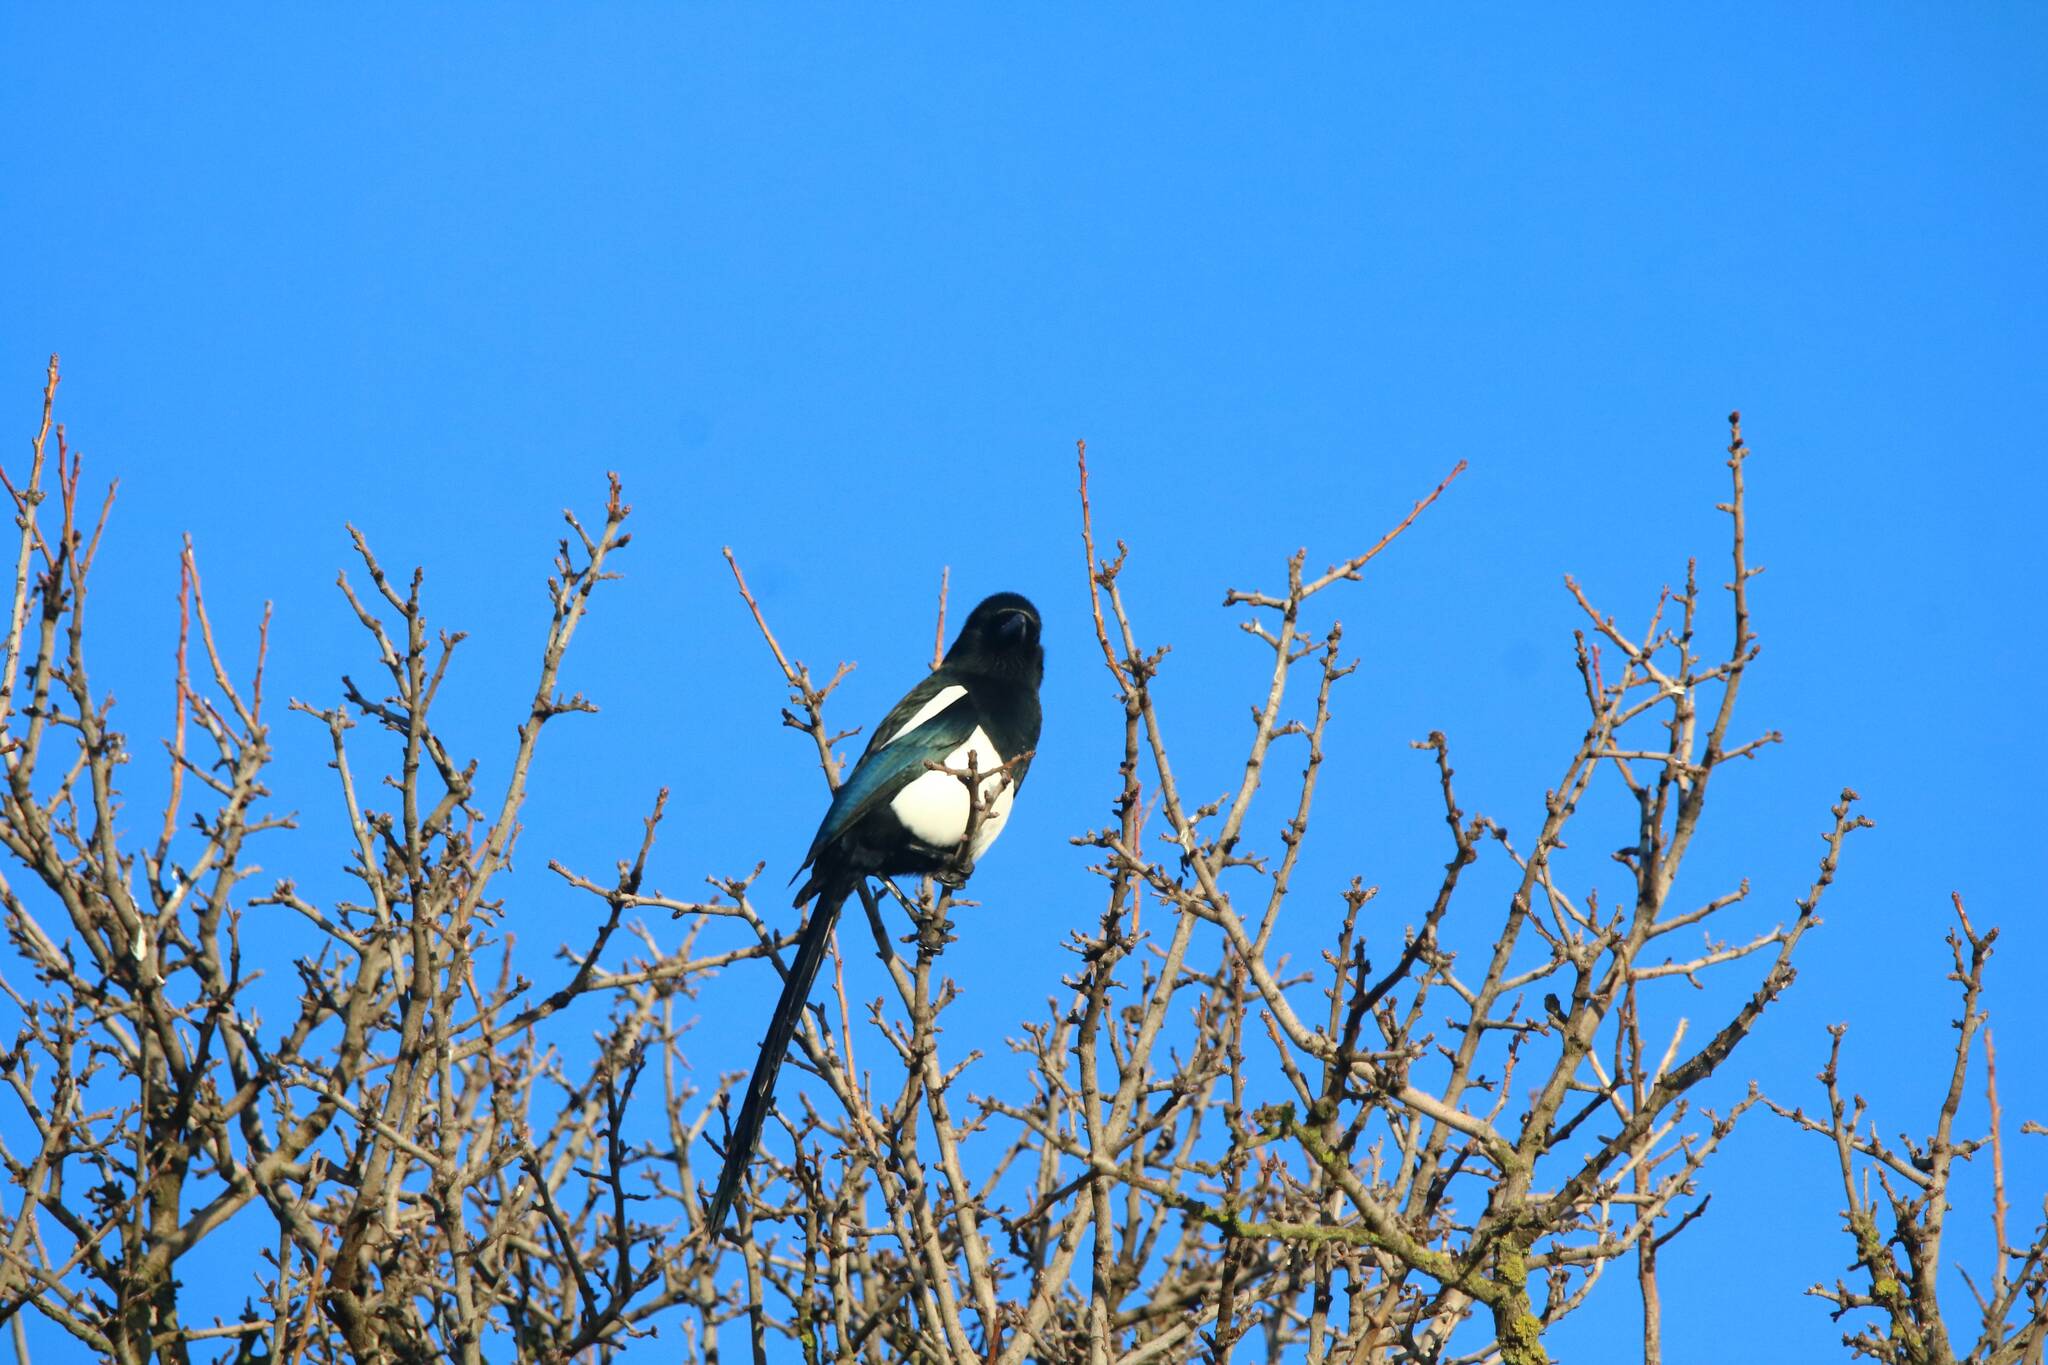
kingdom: Animalia
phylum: Chordata
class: Aves
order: Passeriformes
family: Corvidae
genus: Pica
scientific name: Pica mauritanica
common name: Maghreb magpie
